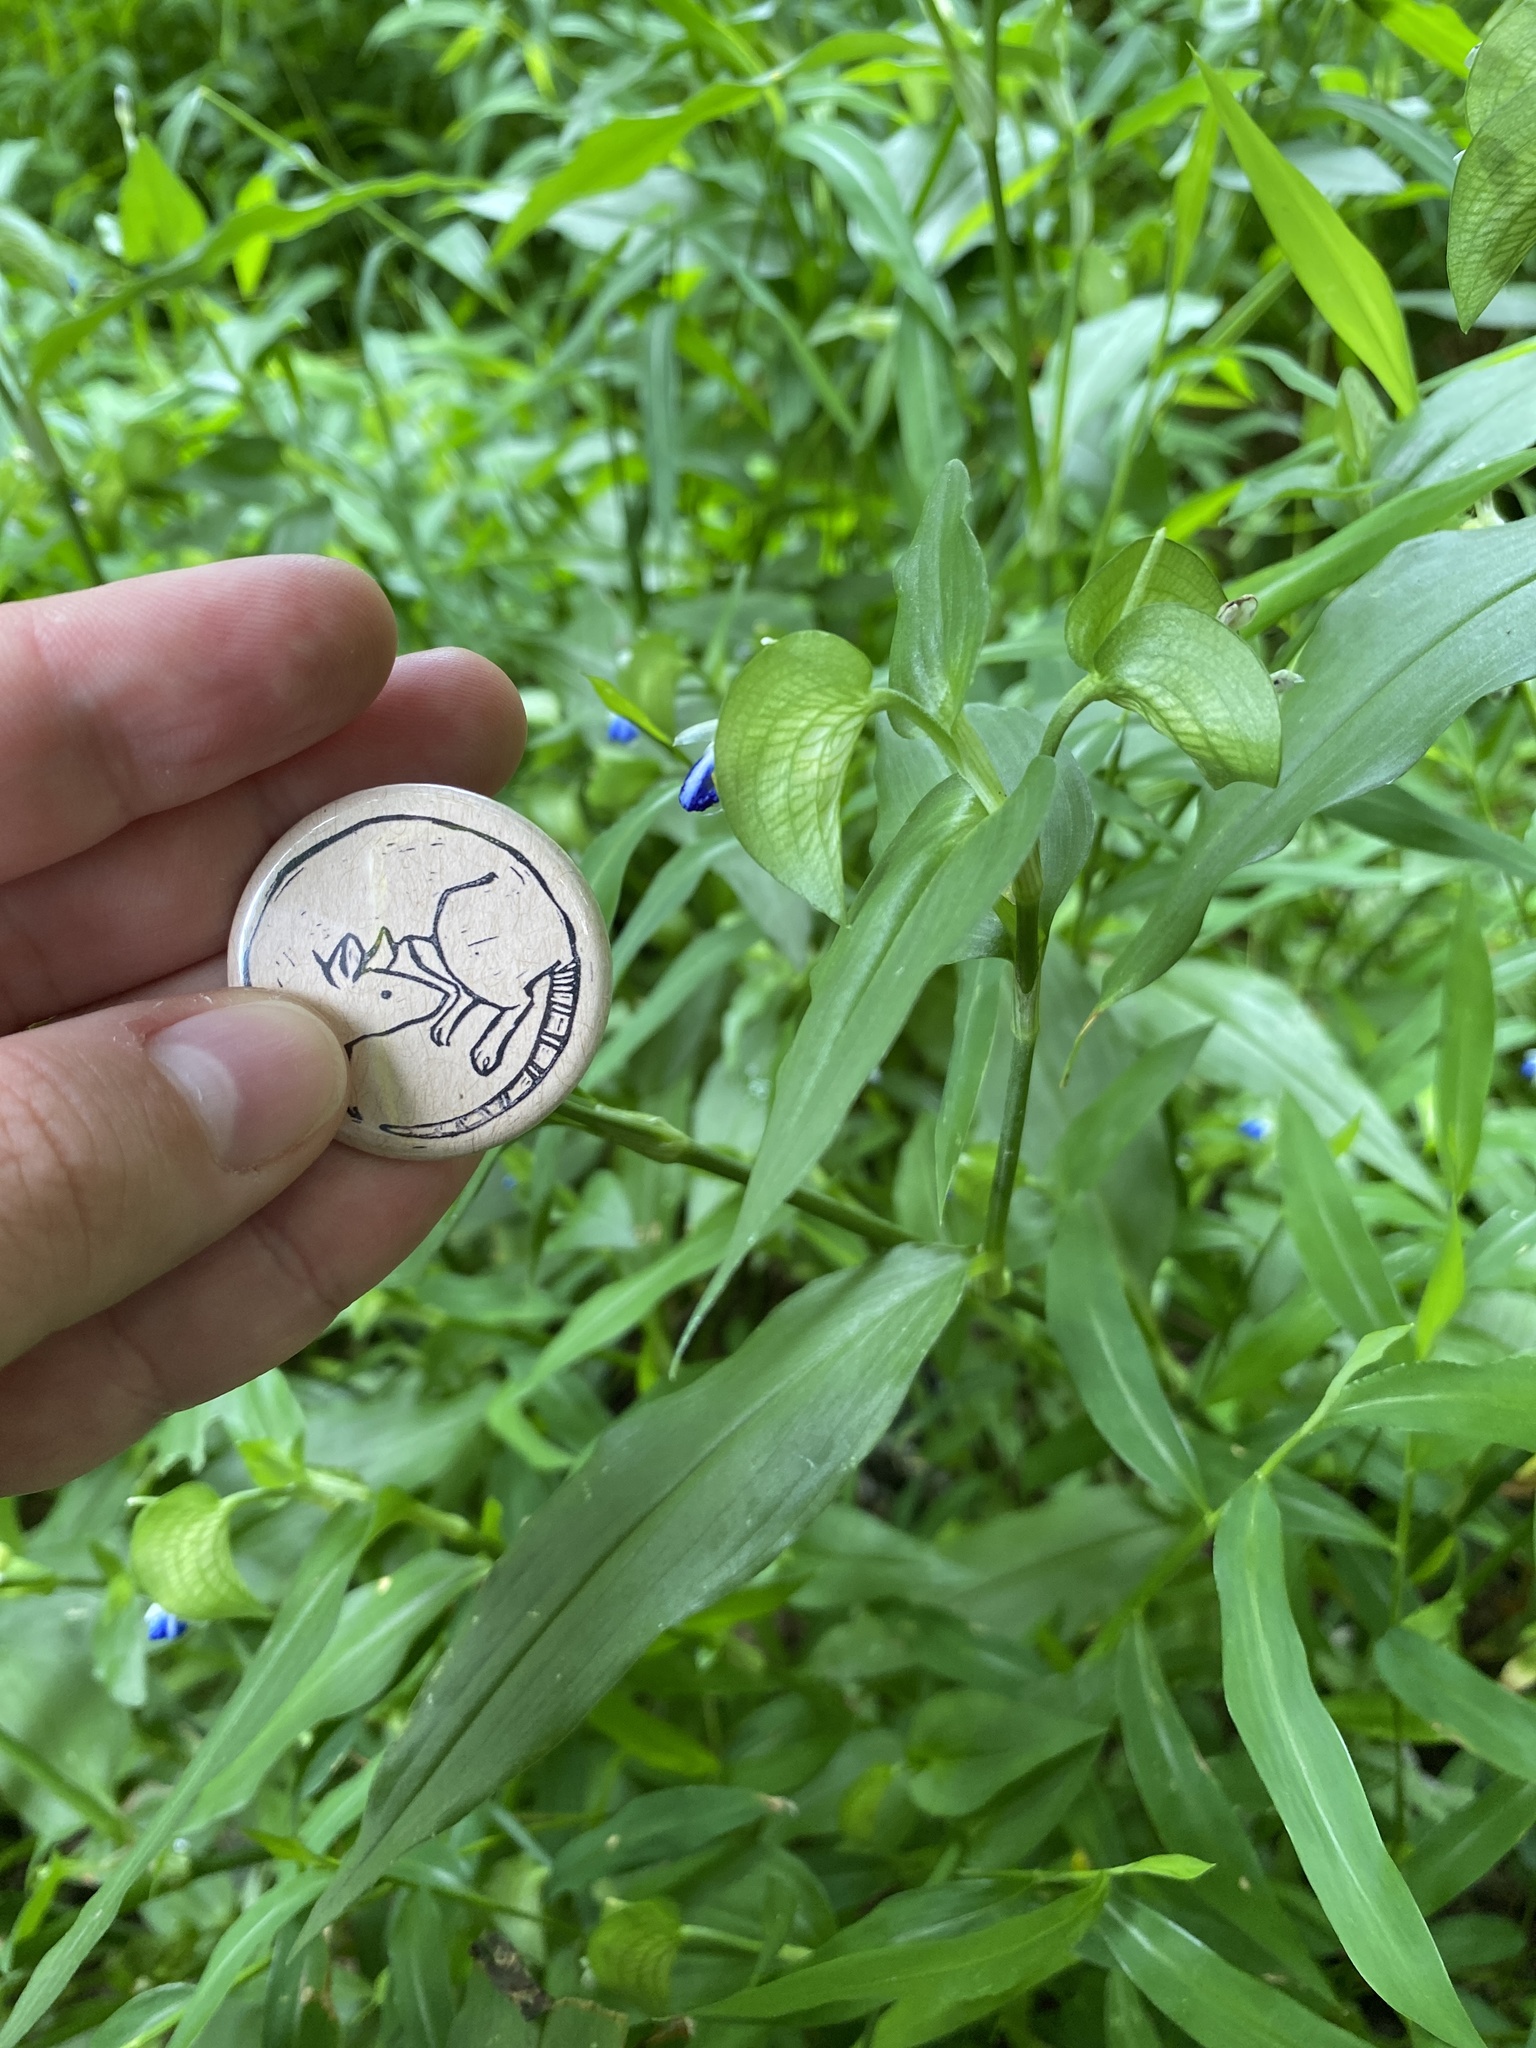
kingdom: Plantae
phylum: Tracheophyta
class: Liliopsida
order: Commelinales
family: Commelinaceae
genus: Commelina
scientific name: Commelina communis
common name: Asiatic dayflower
